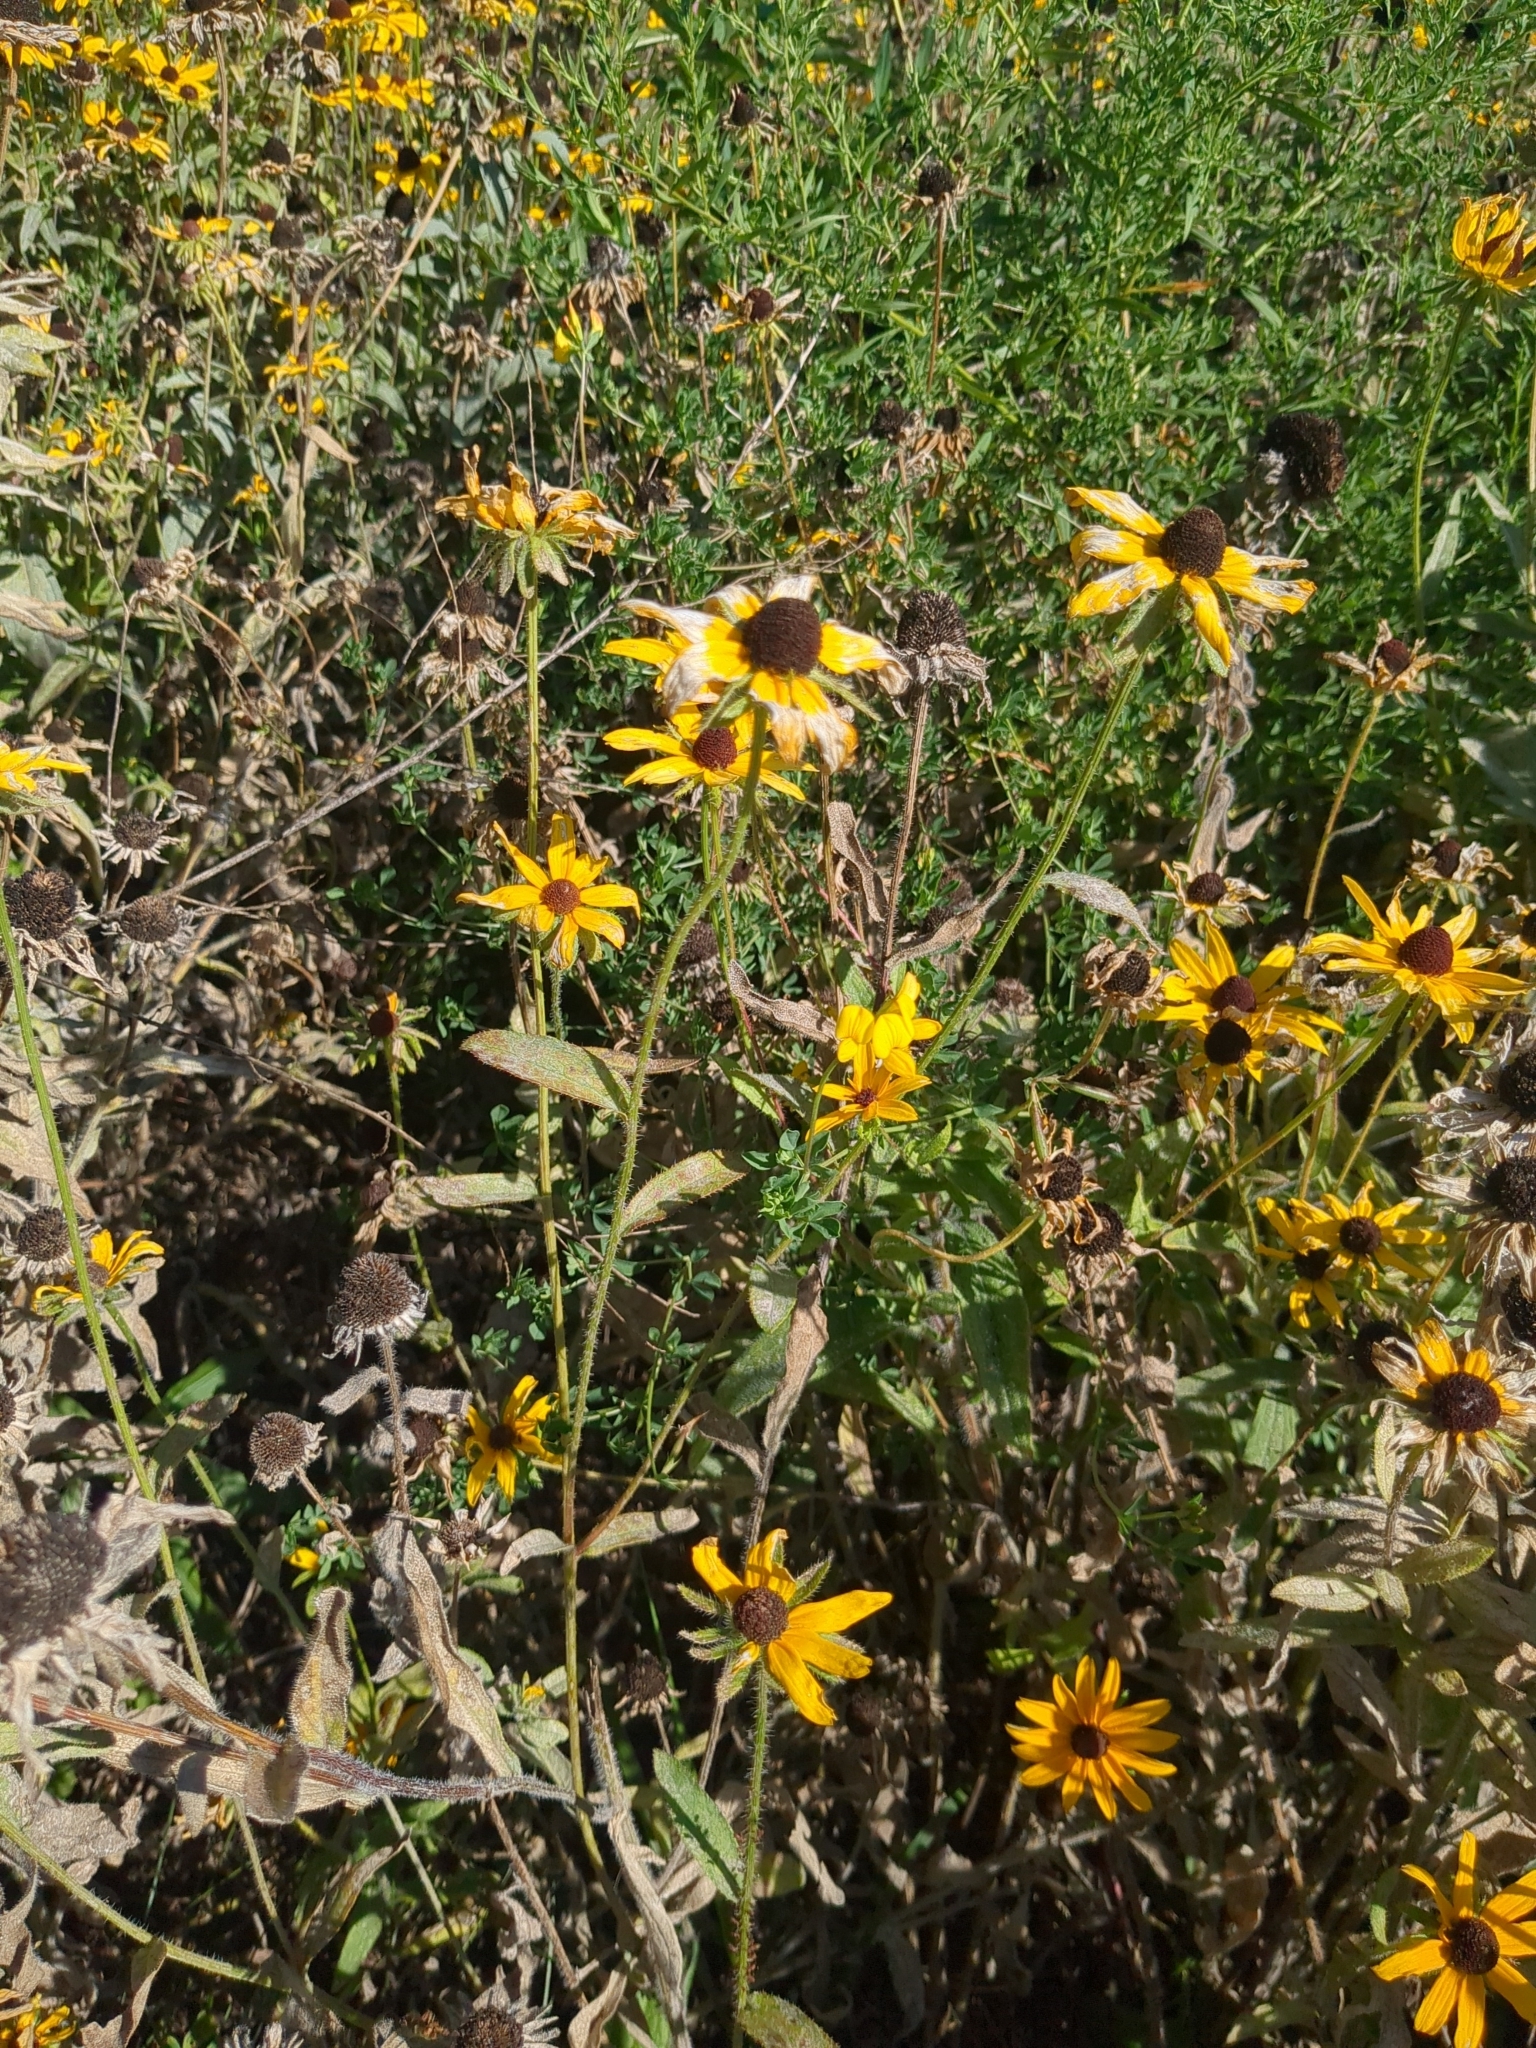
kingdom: Plantae
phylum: Tracheophyta
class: Magnoliopsida
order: Asterales
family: Asteraceae
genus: Rudbeckia
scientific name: Rudbeckia hirta
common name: Black-eyed-susan
